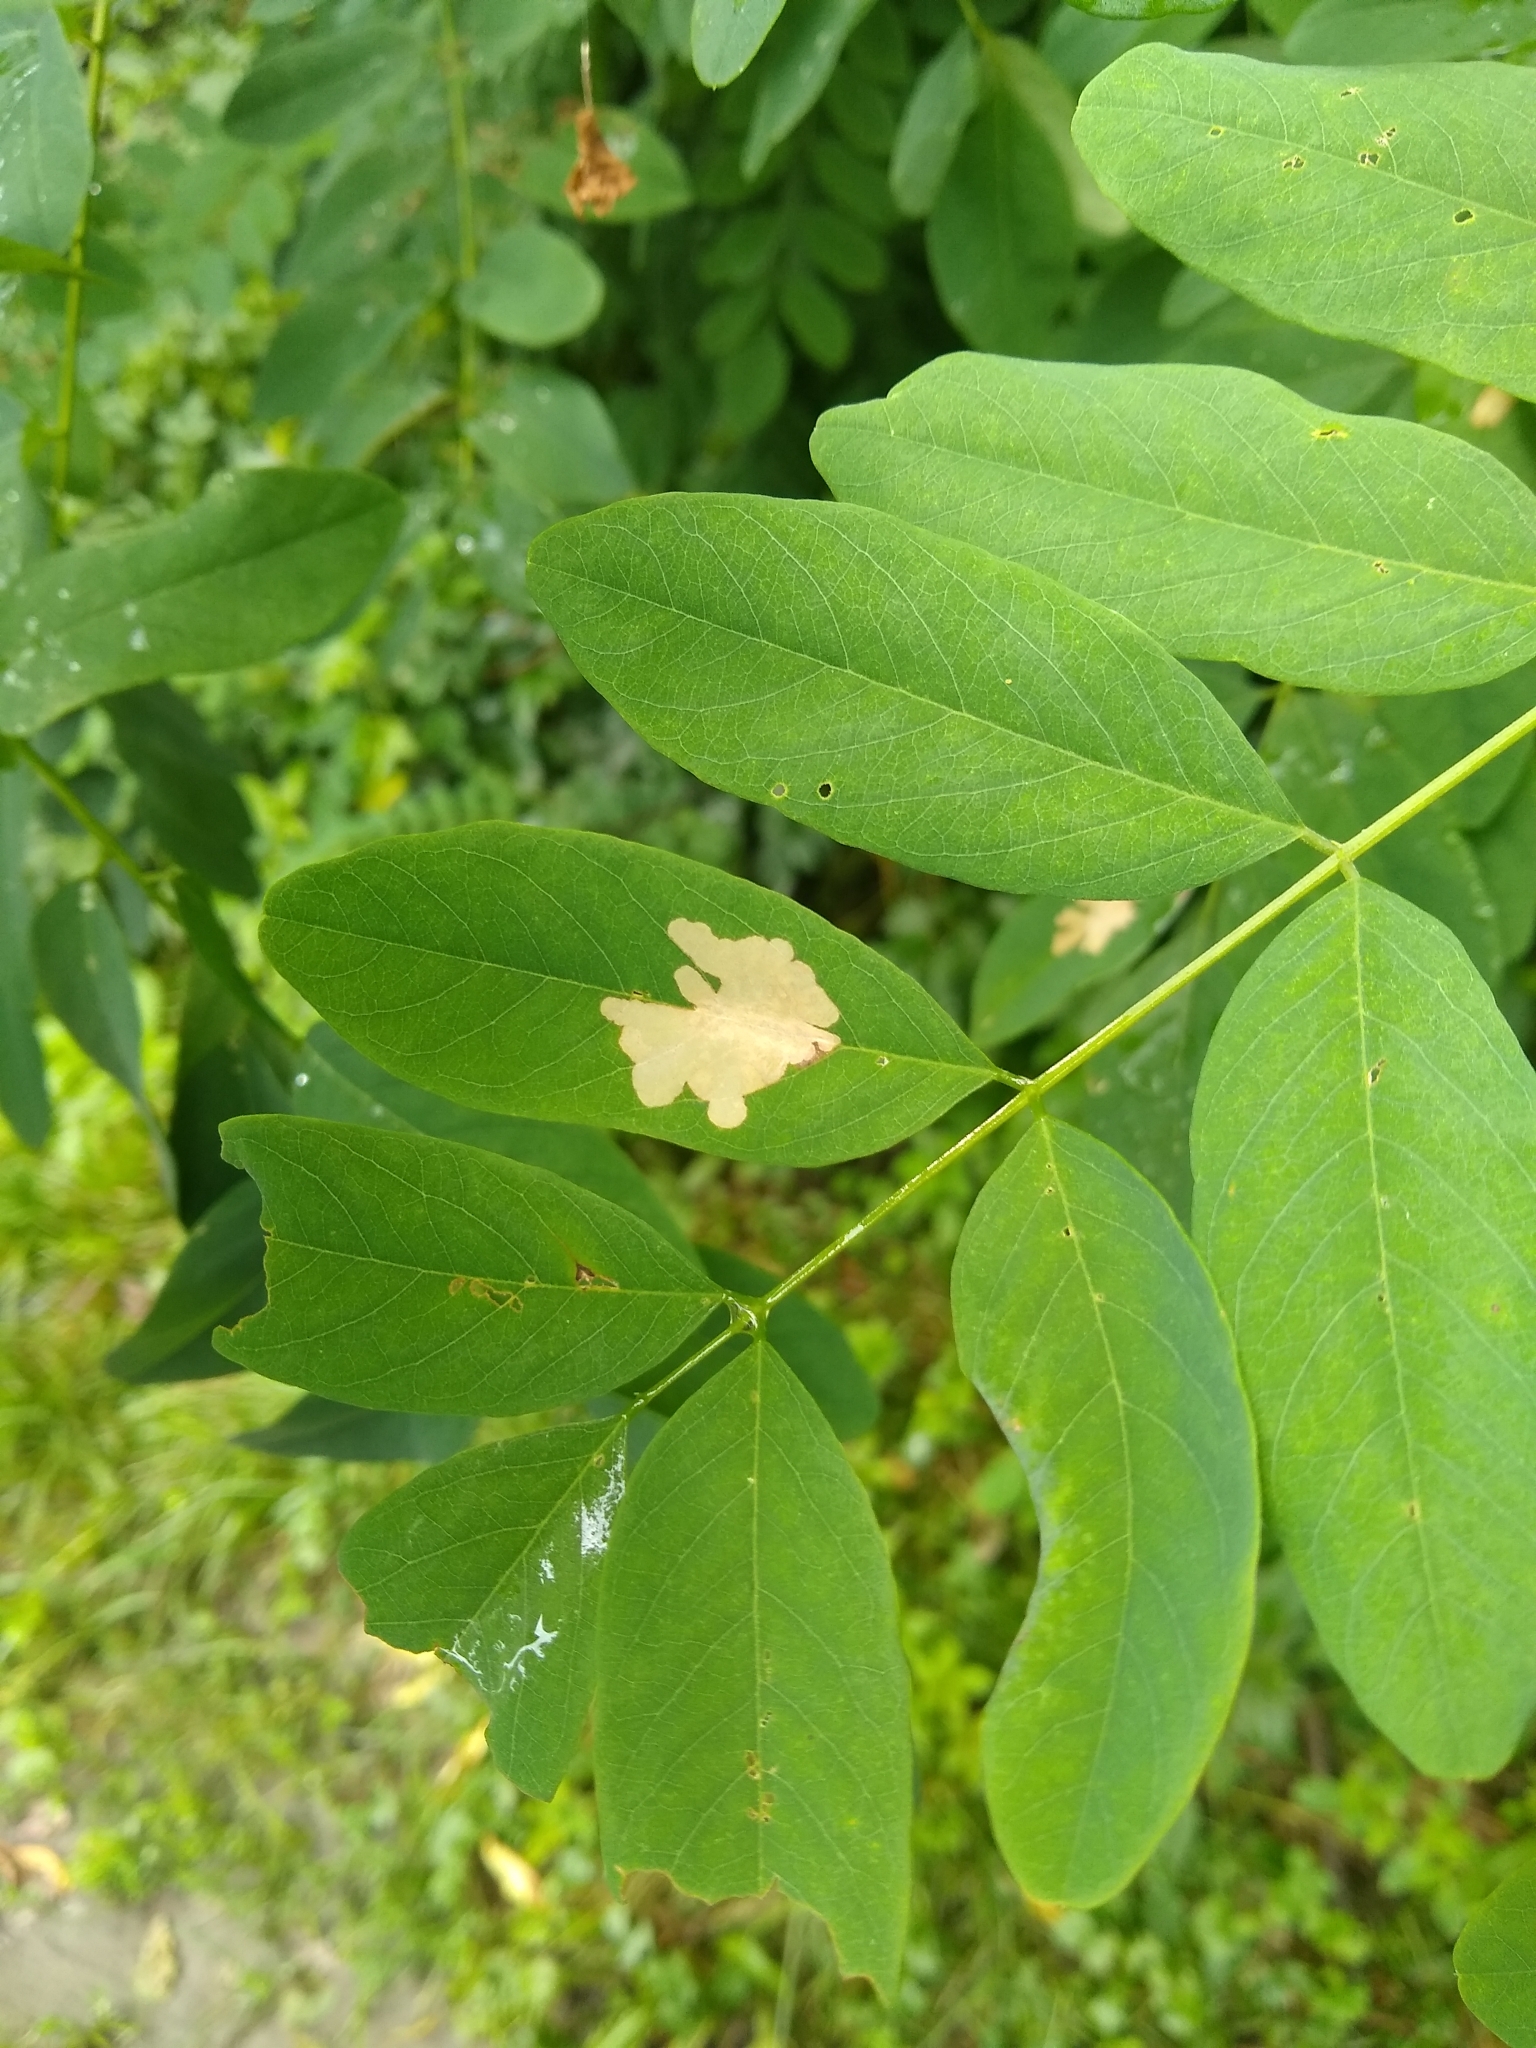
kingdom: Plantae
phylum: Tracheophyta
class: Magnoliopsida
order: Fabales
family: Fabaceae
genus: Robinia
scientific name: Robinia pseudoacacia
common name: Black locust
